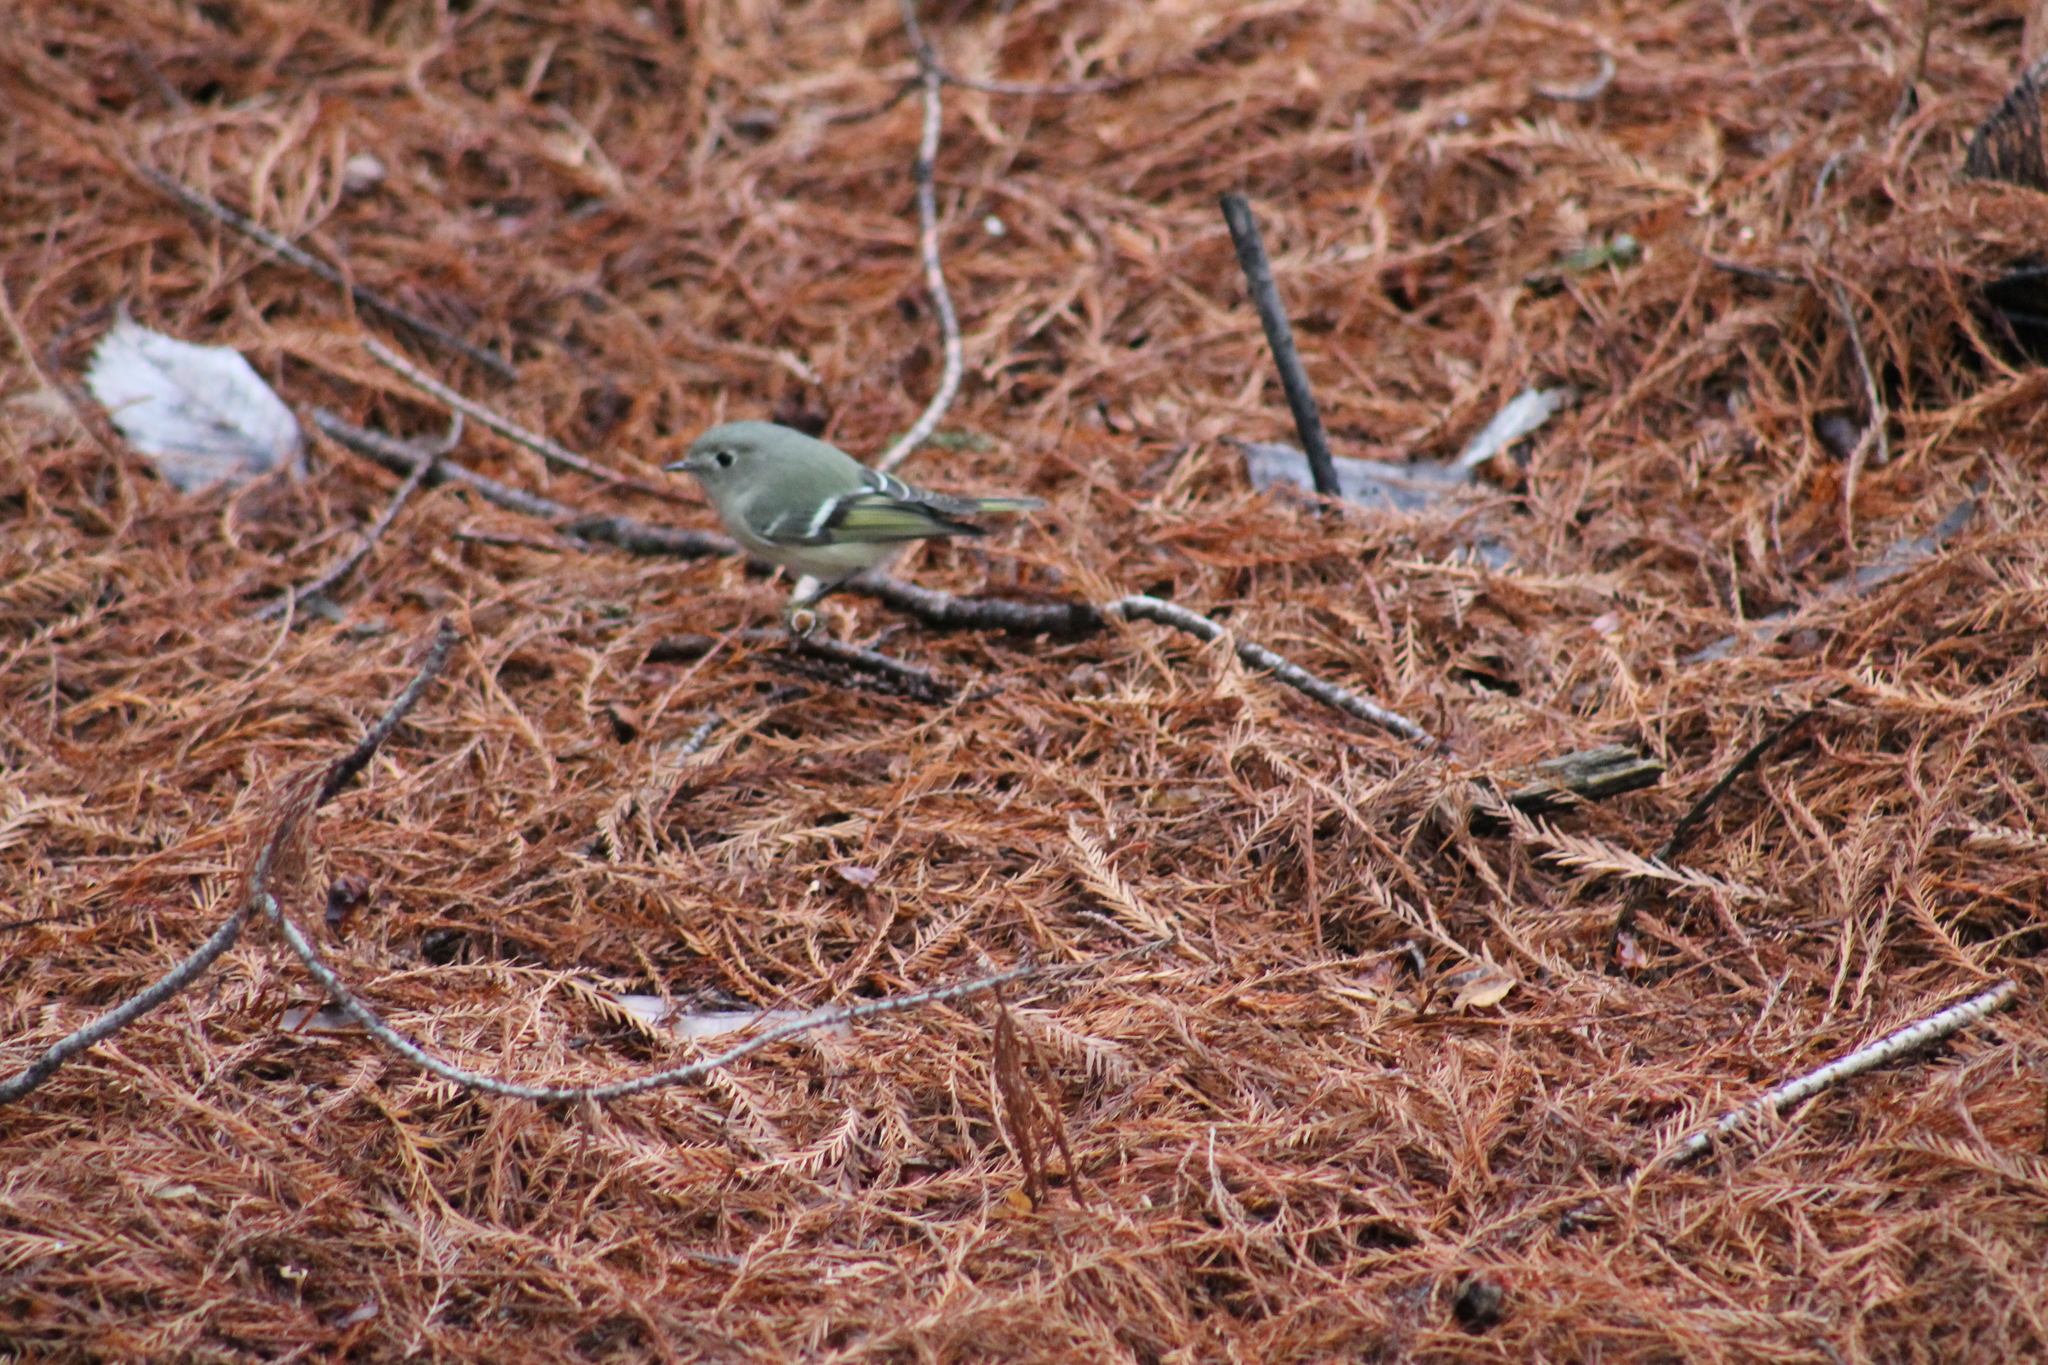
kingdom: Animalia
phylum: Chordata
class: Aves
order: Passeriformes
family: Regulidae
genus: Regulus
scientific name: Regulus calendula
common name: Ruby-crowned kinglet
